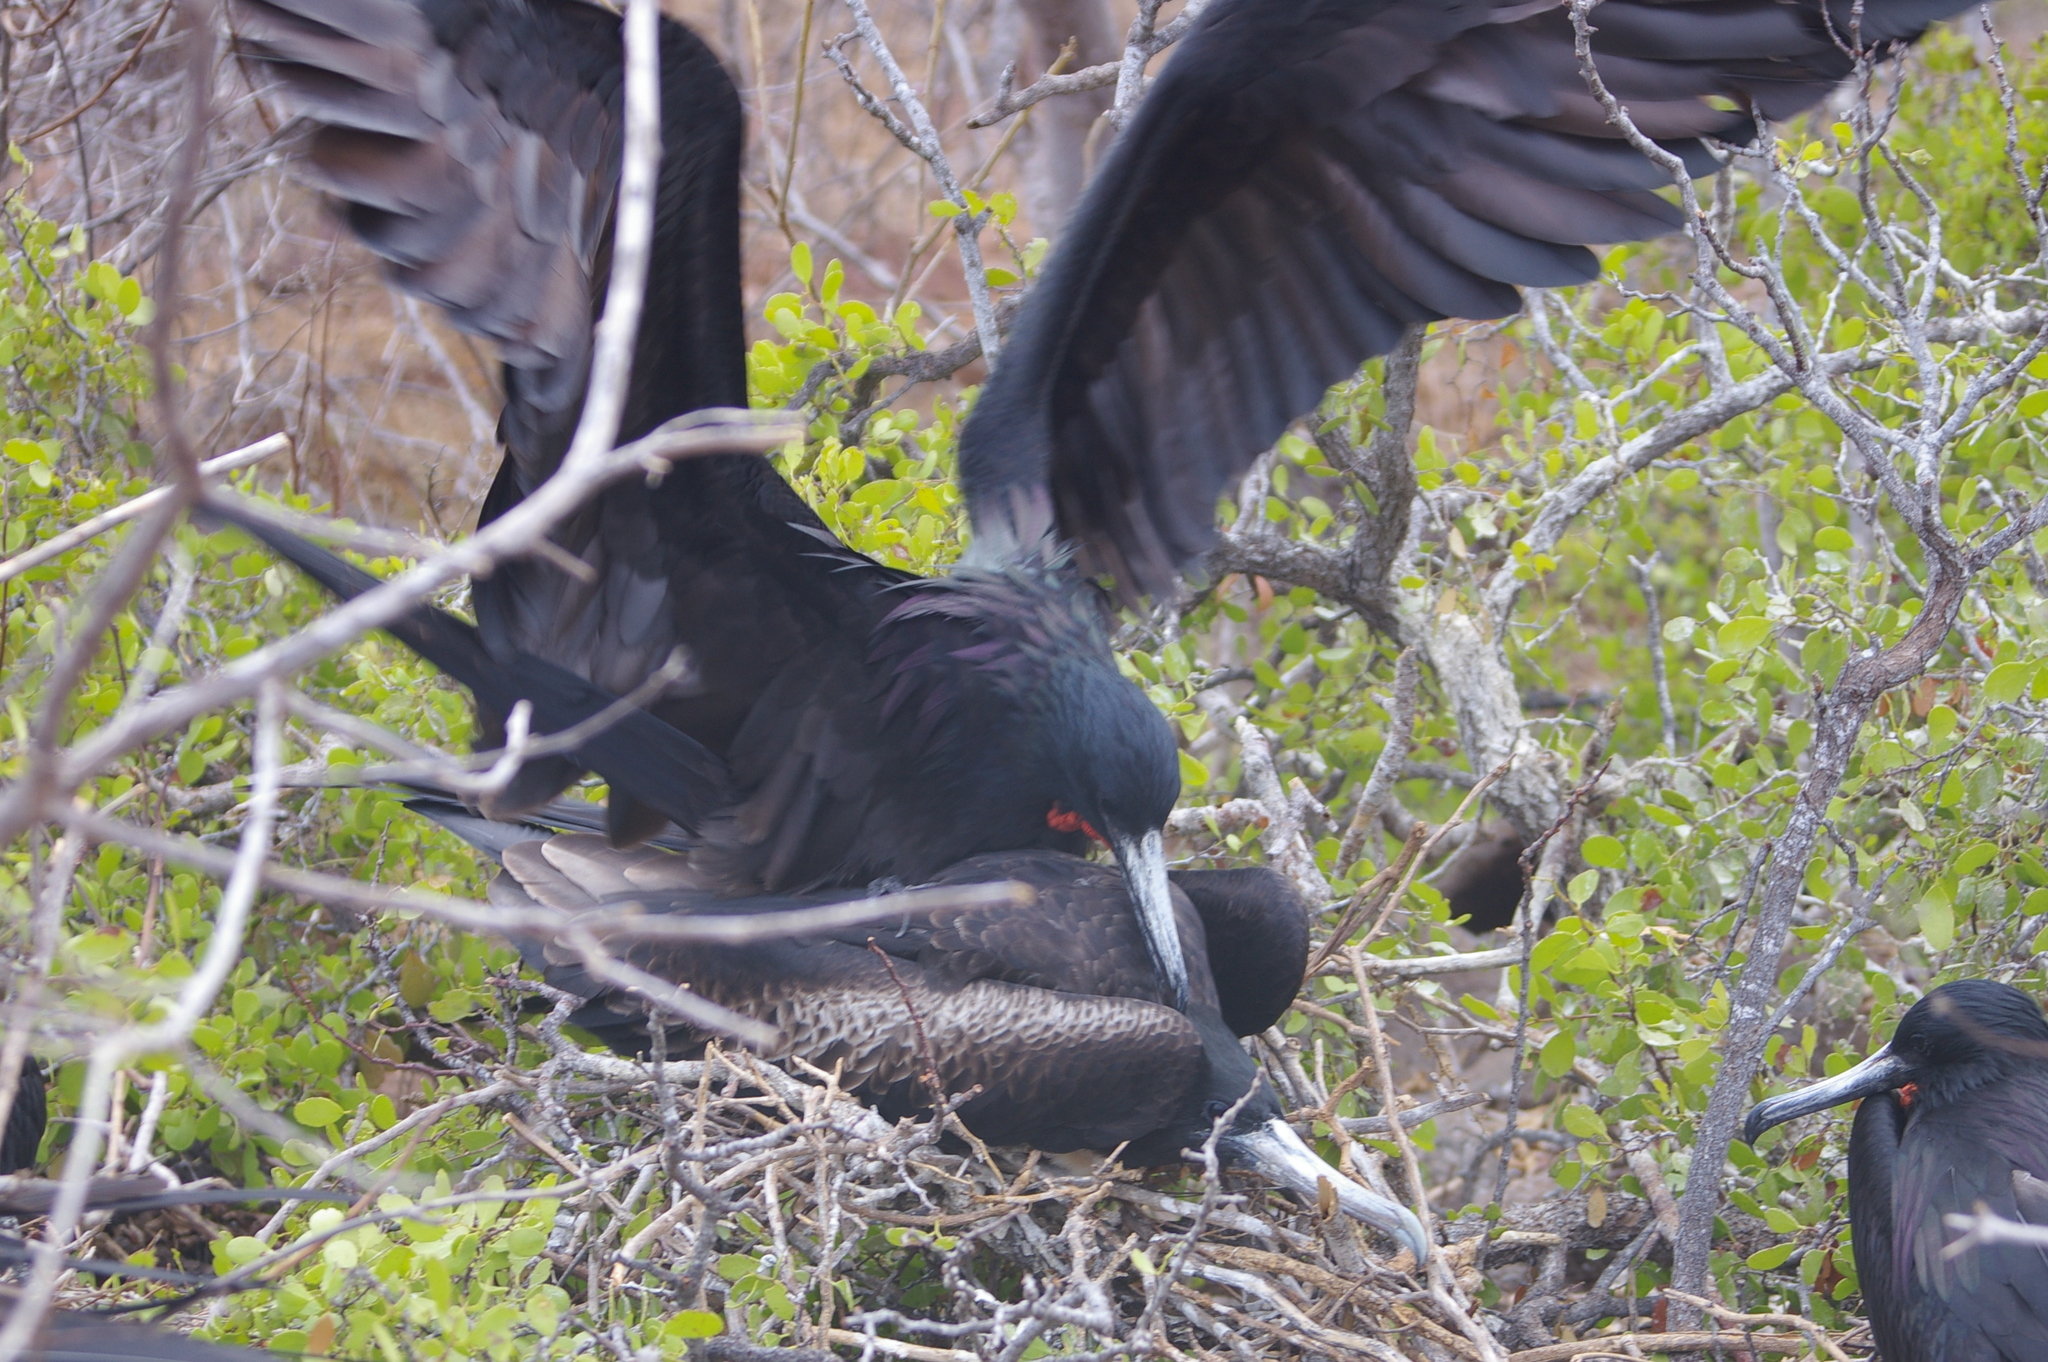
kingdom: Animalia
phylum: Chordata
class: Aves
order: Suliformes
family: Fregatidae
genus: Fregata
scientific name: Fregata magnificens
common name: Magnificent frigatebird
